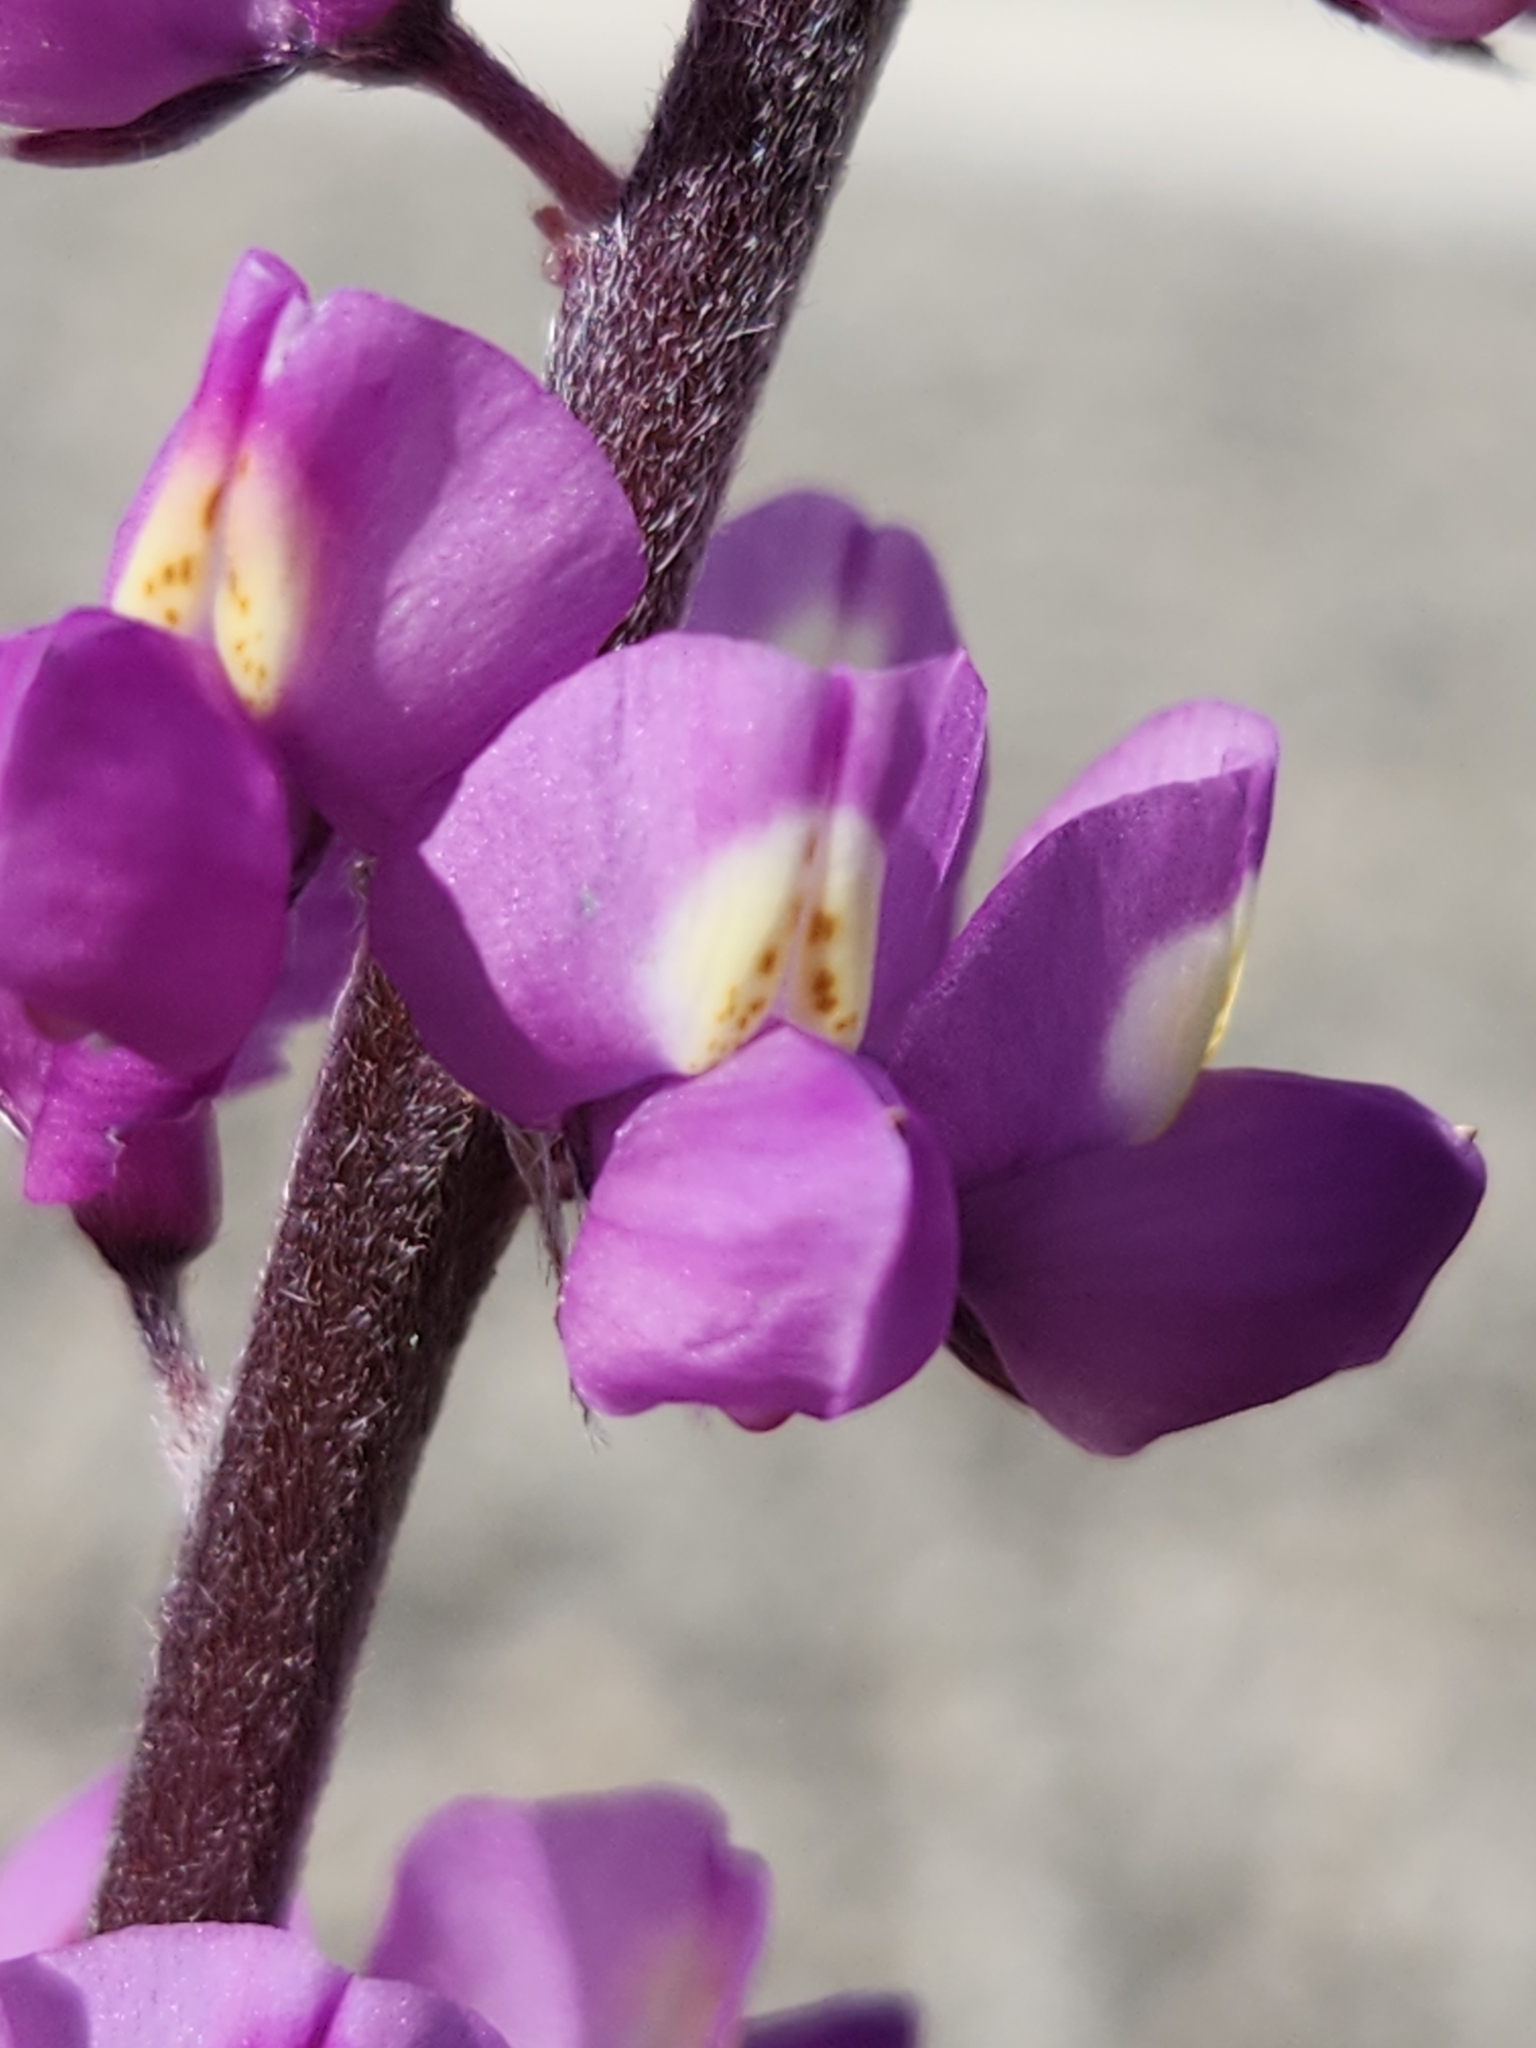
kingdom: Plantae
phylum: Tracheophyta
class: Magnoliopsida
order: Fabales
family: Fabaceae
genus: Lupinus
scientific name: Lupinus arizonicus
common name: Arizona lupine
